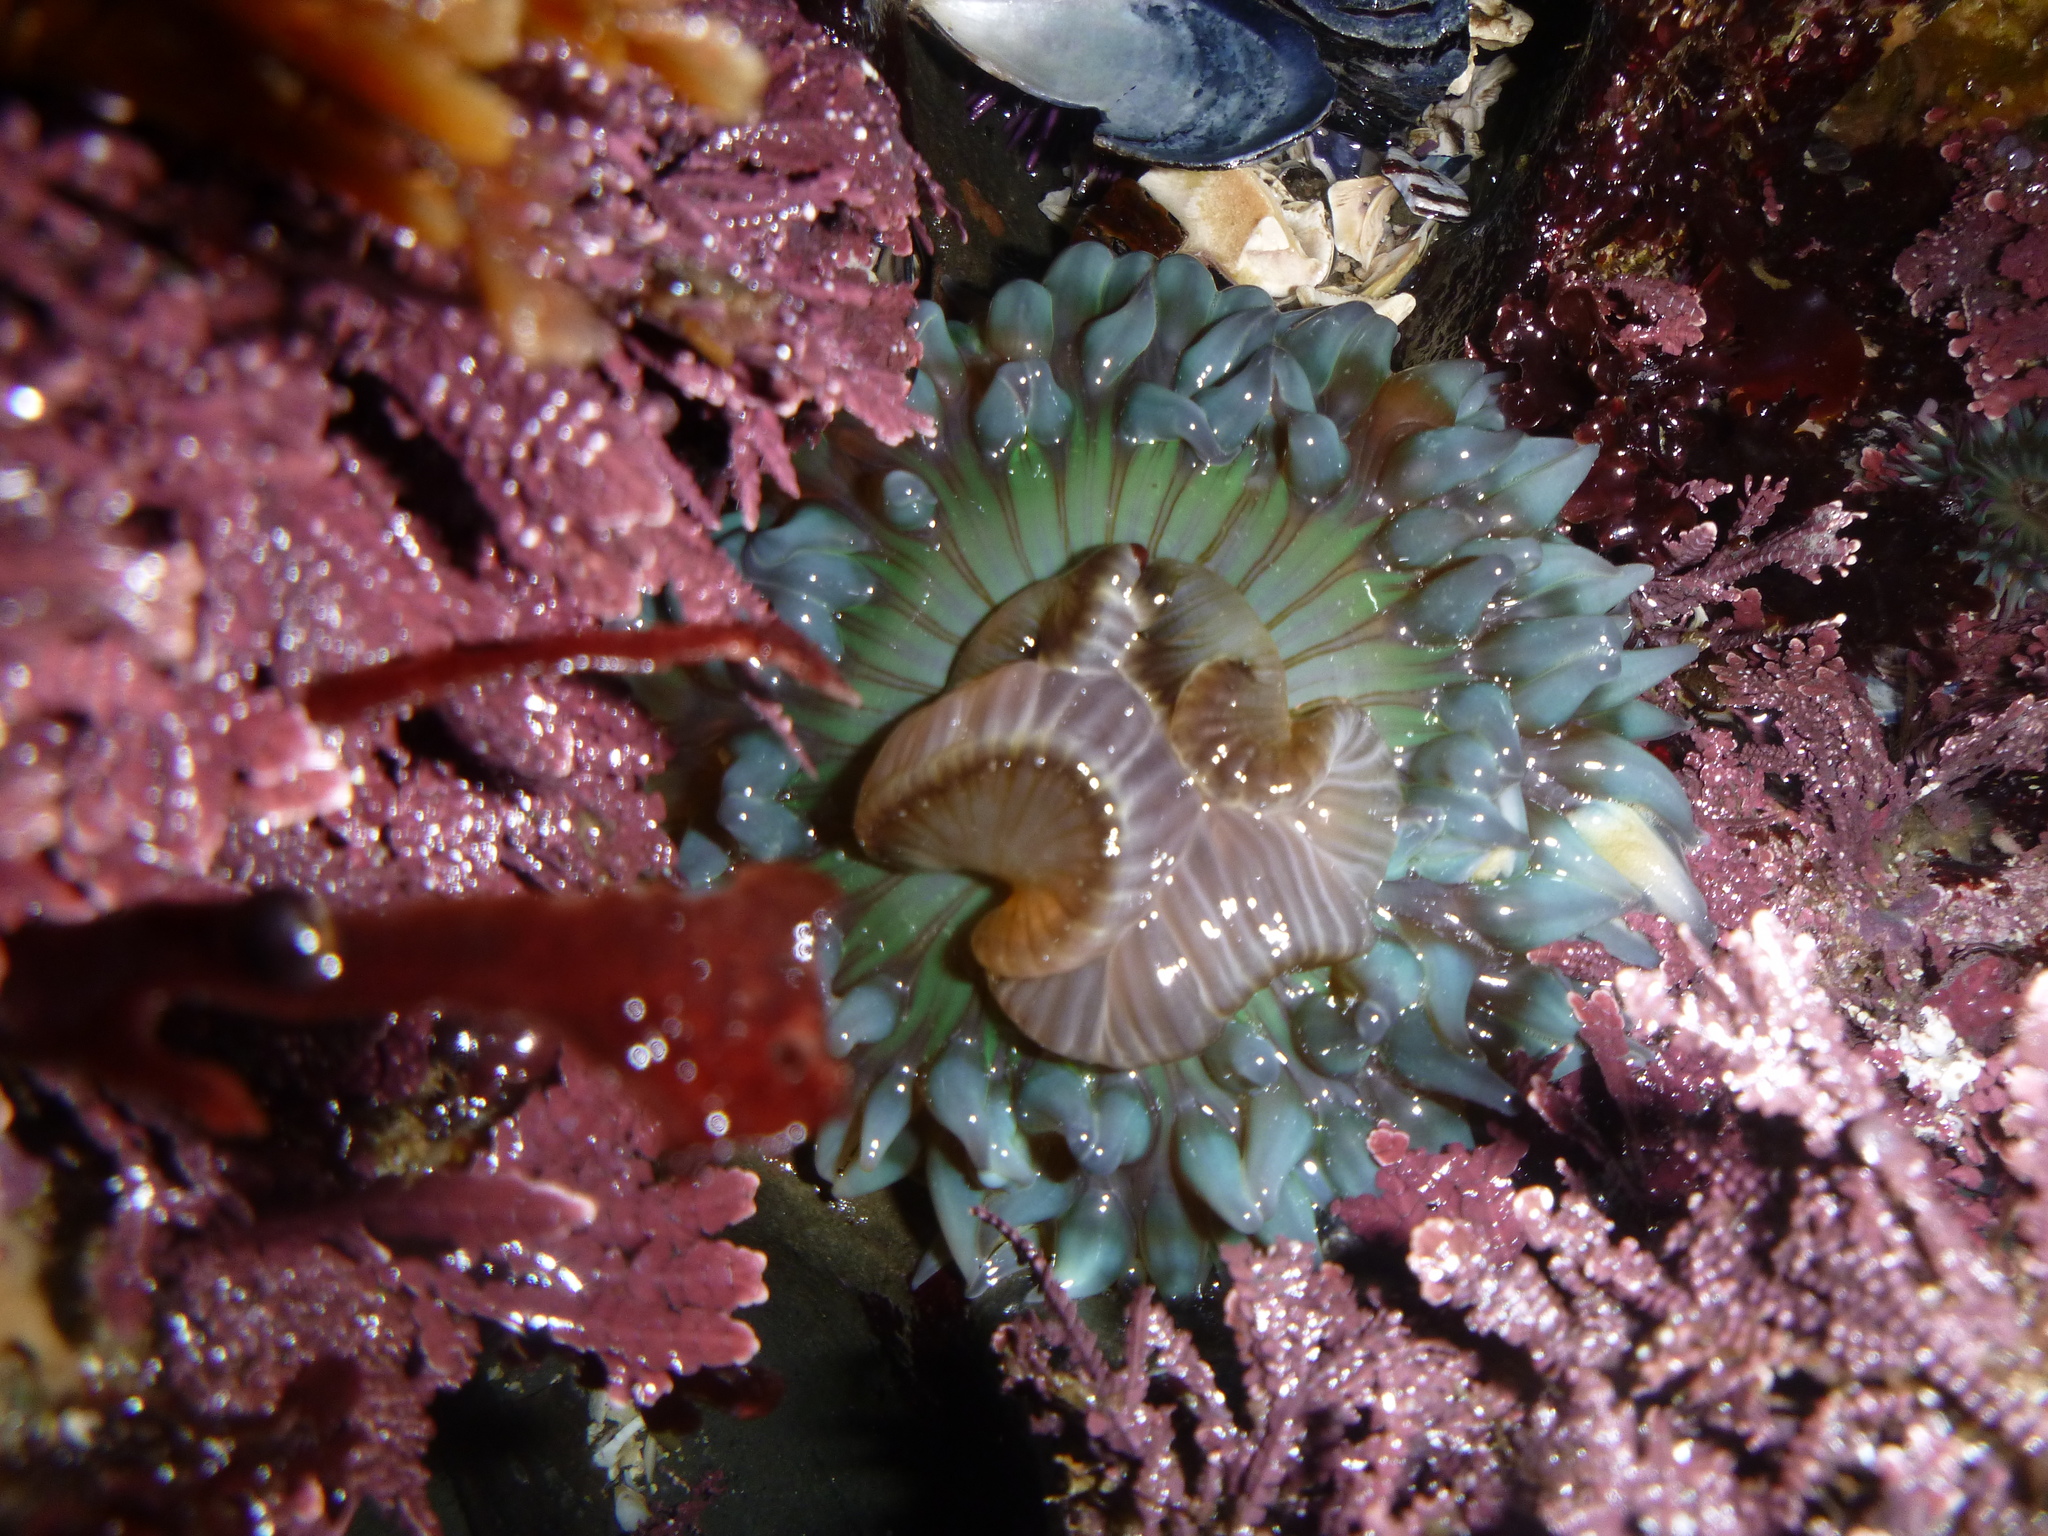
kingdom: Animalia
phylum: Cnidaria
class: Anthozoa
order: Actiniaria
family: Actiniidae
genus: Anthopleura
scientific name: Anthopleura sola
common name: Sun anemone
